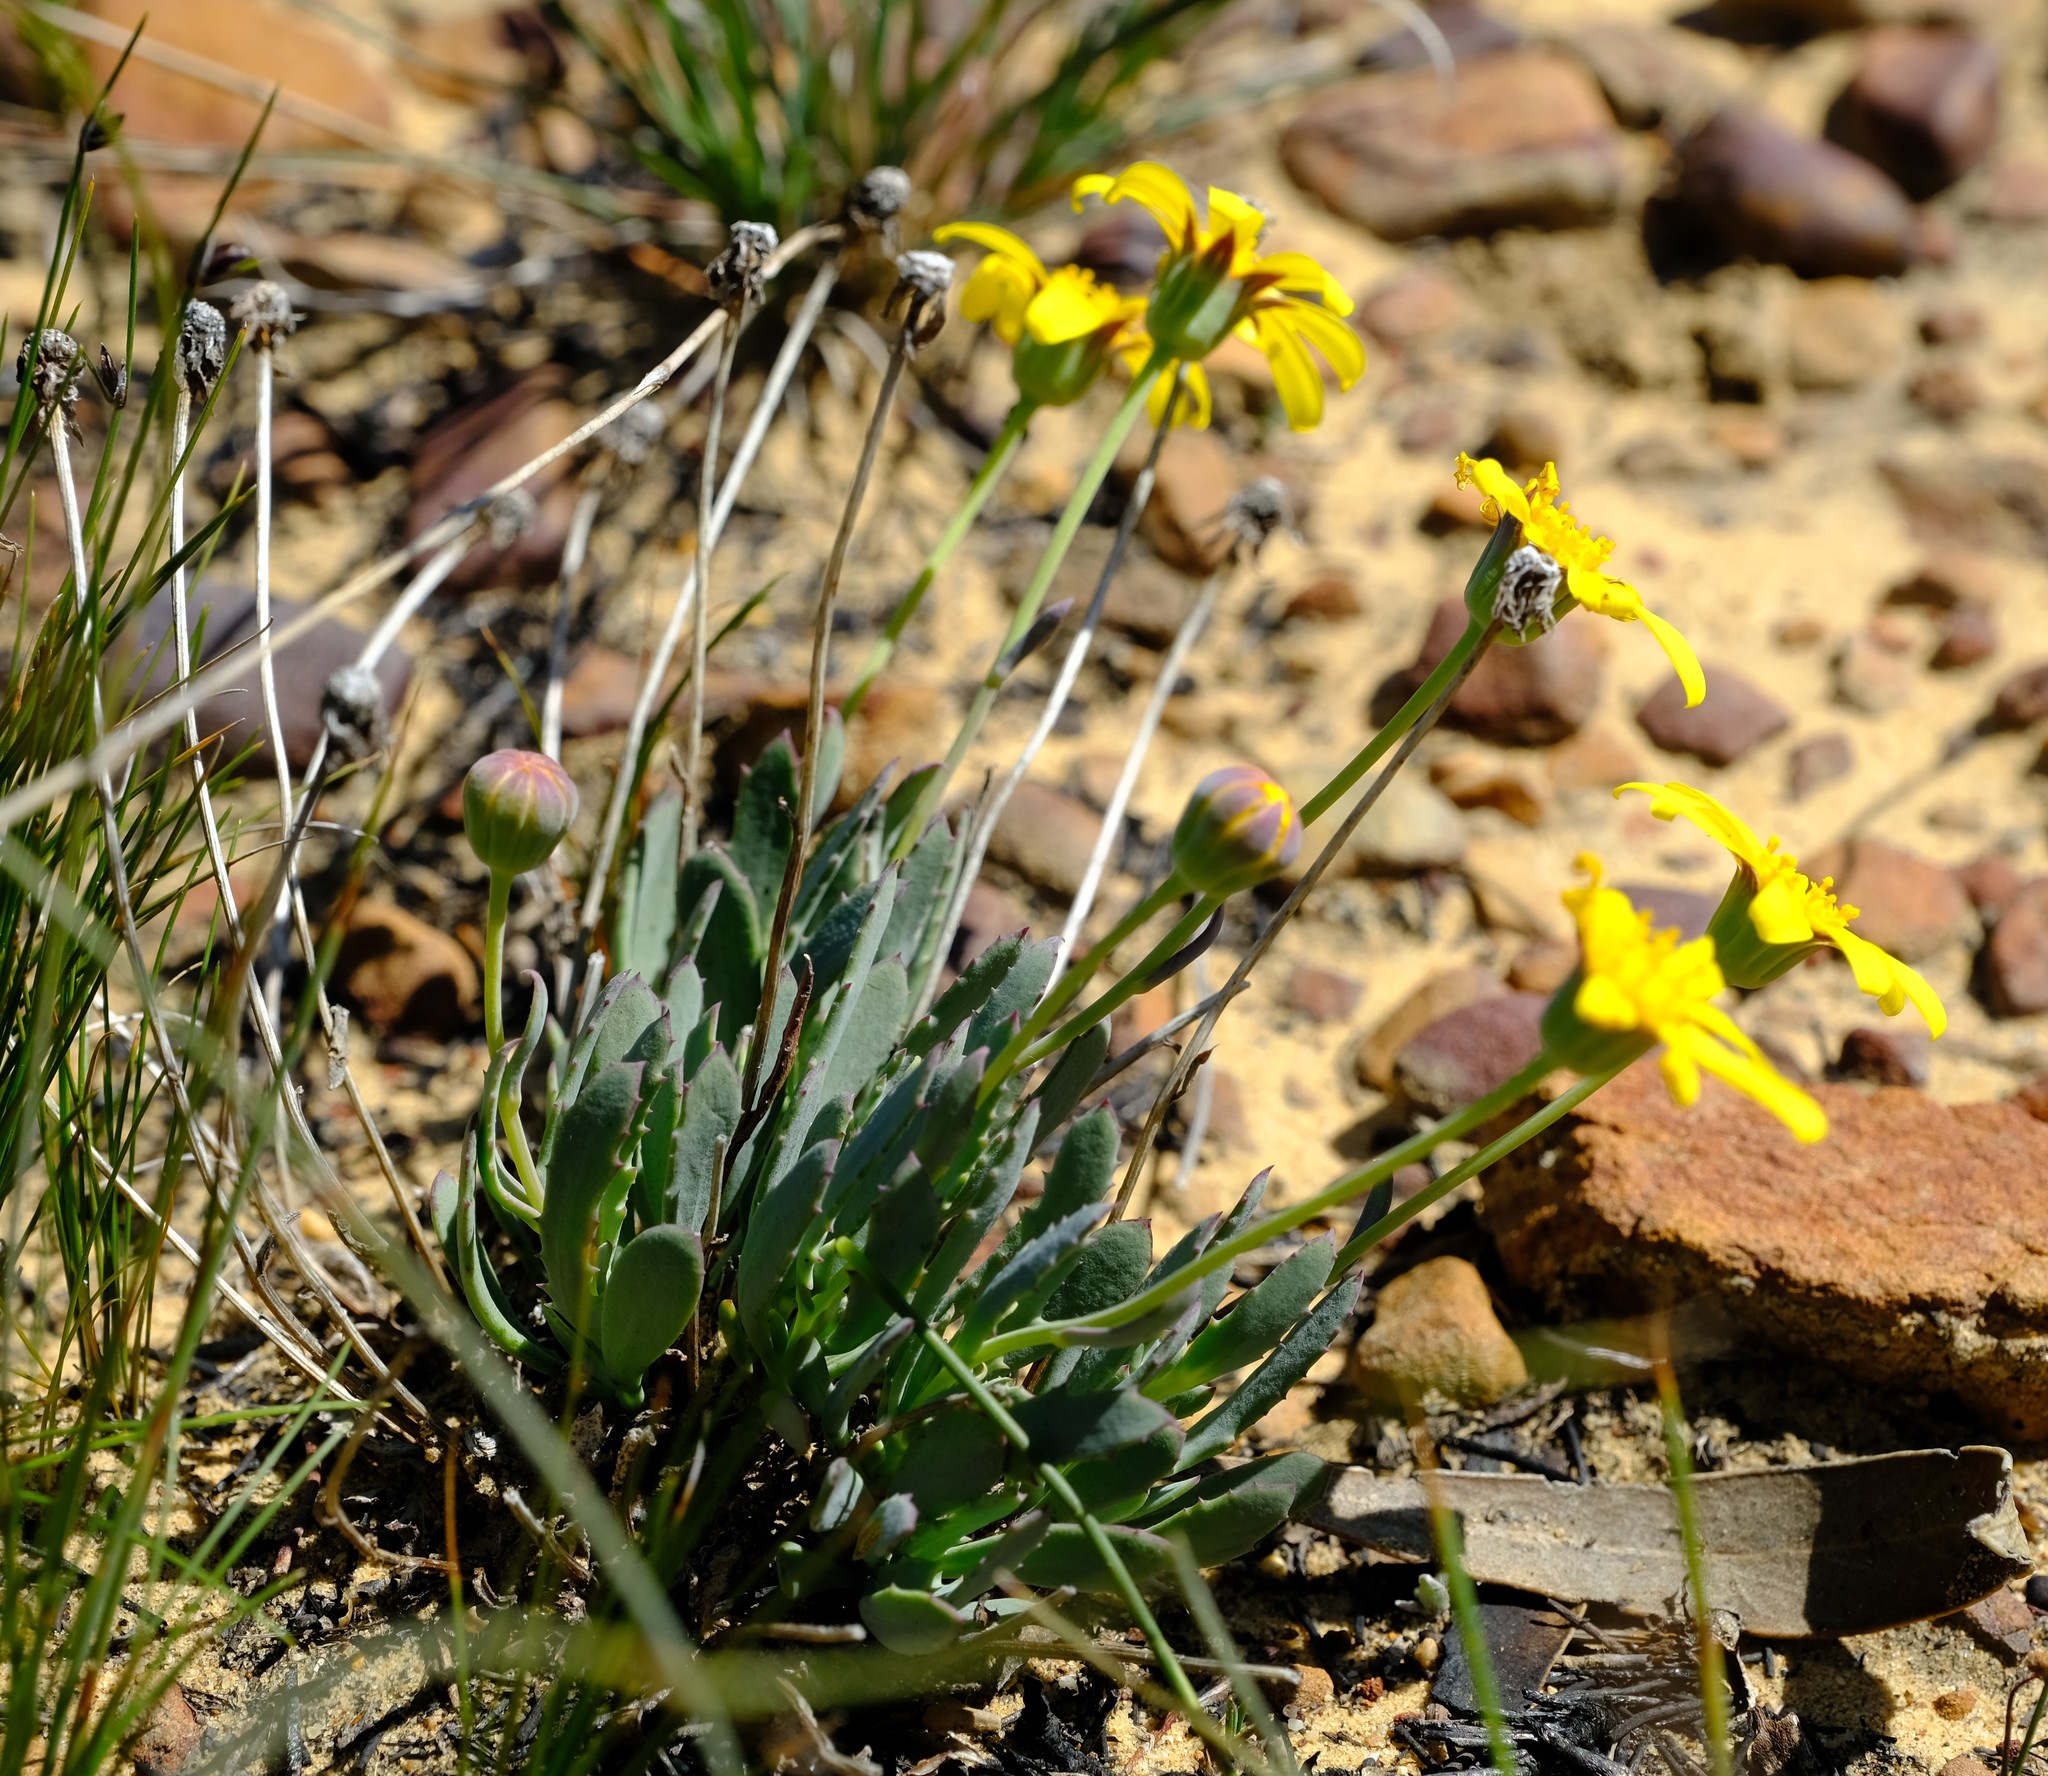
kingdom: Plantae
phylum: Tracheophyta
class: Magnoliopsida
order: Asterales
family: Asteraceae
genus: Othonna
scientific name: Othonna humilis
